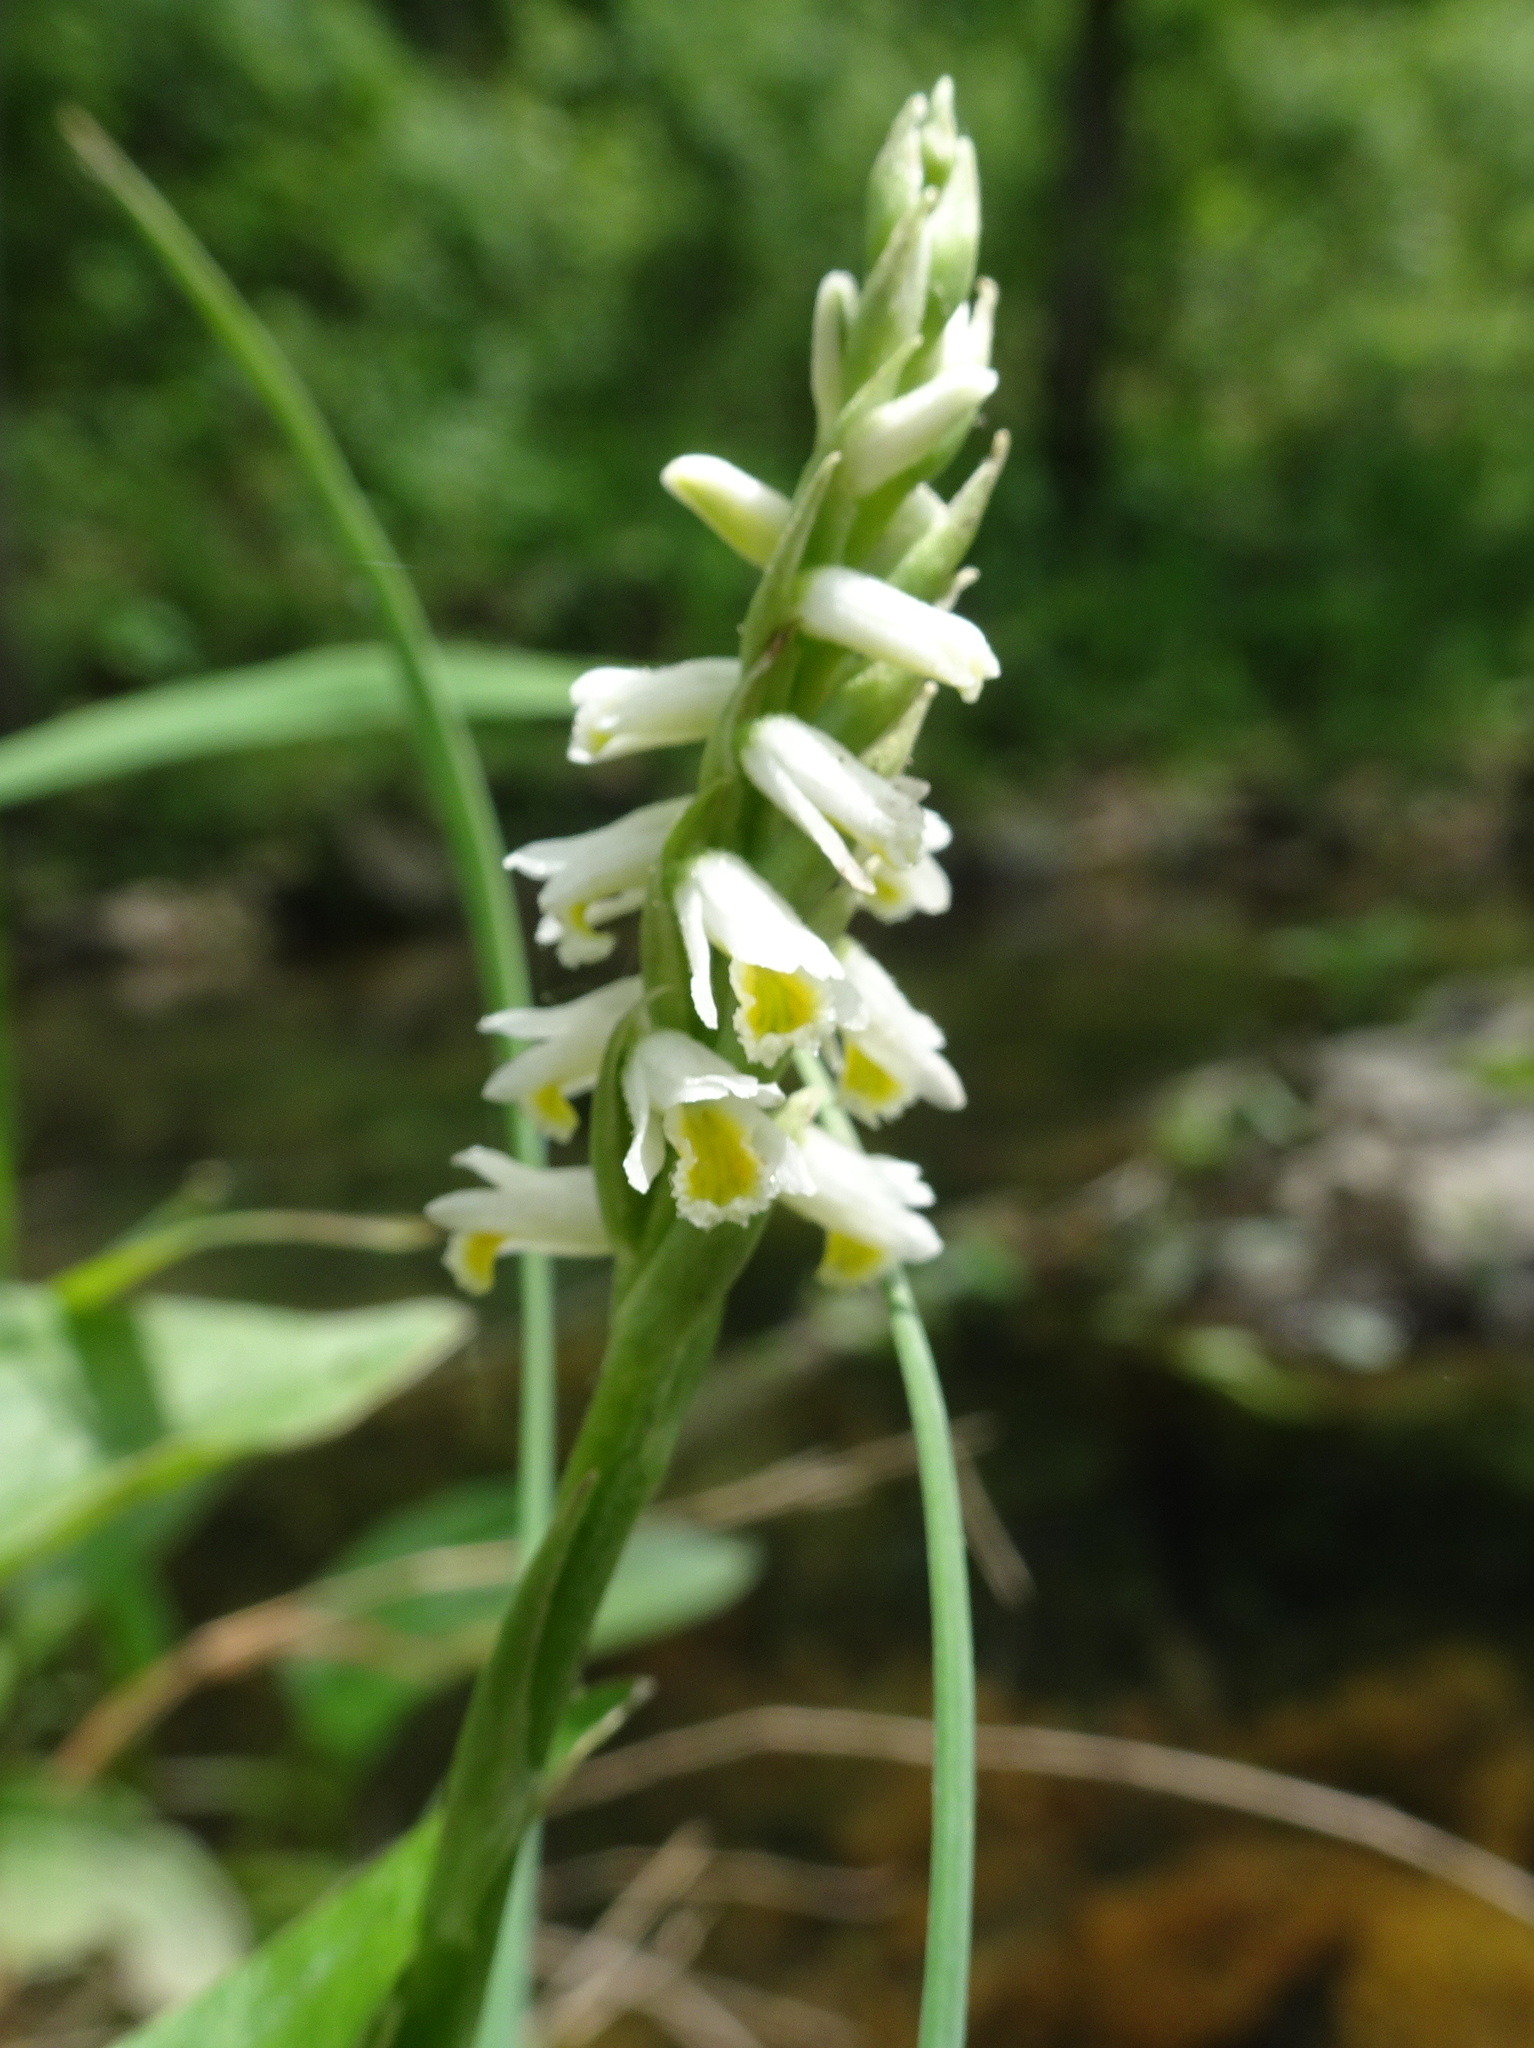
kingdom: Plantae
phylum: Tracheophyta
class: Liliopsida
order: Asparagales
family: Orchidaceae
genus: Spiranthes
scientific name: Spiranthes lucida
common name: Broad-leaved ladies'-tresses
